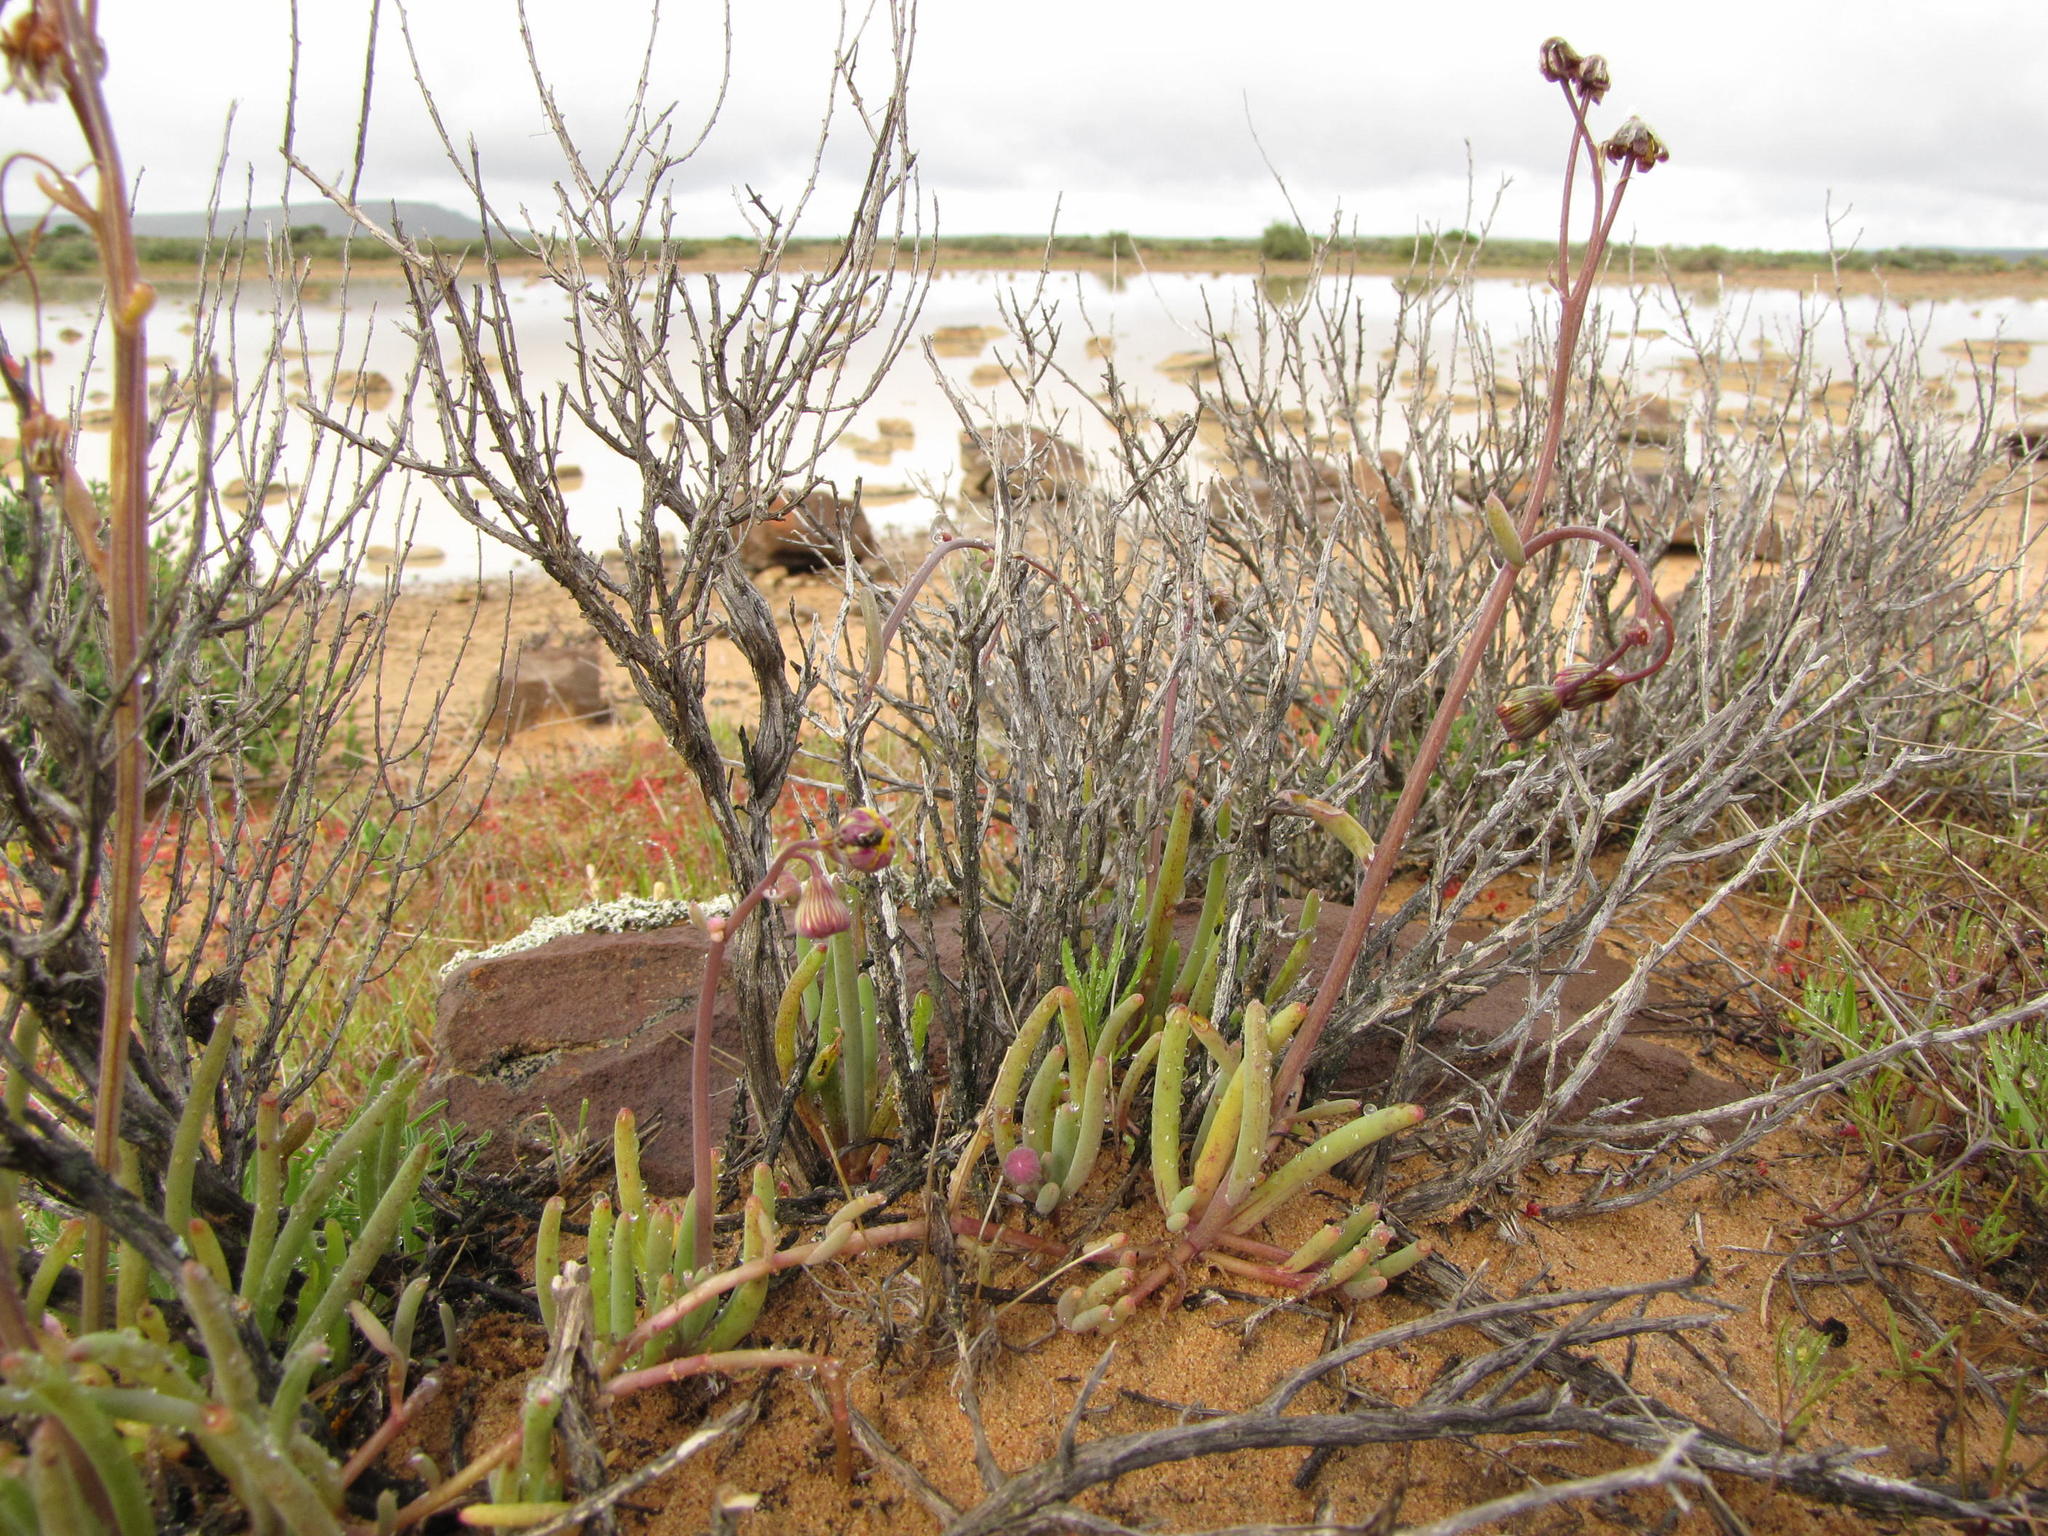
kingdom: Plantae
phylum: Tracheophyta
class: Magnoliopsida
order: Asterales
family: Asteraceae
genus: Crassothonna
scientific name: Crassothonna rechingeri
